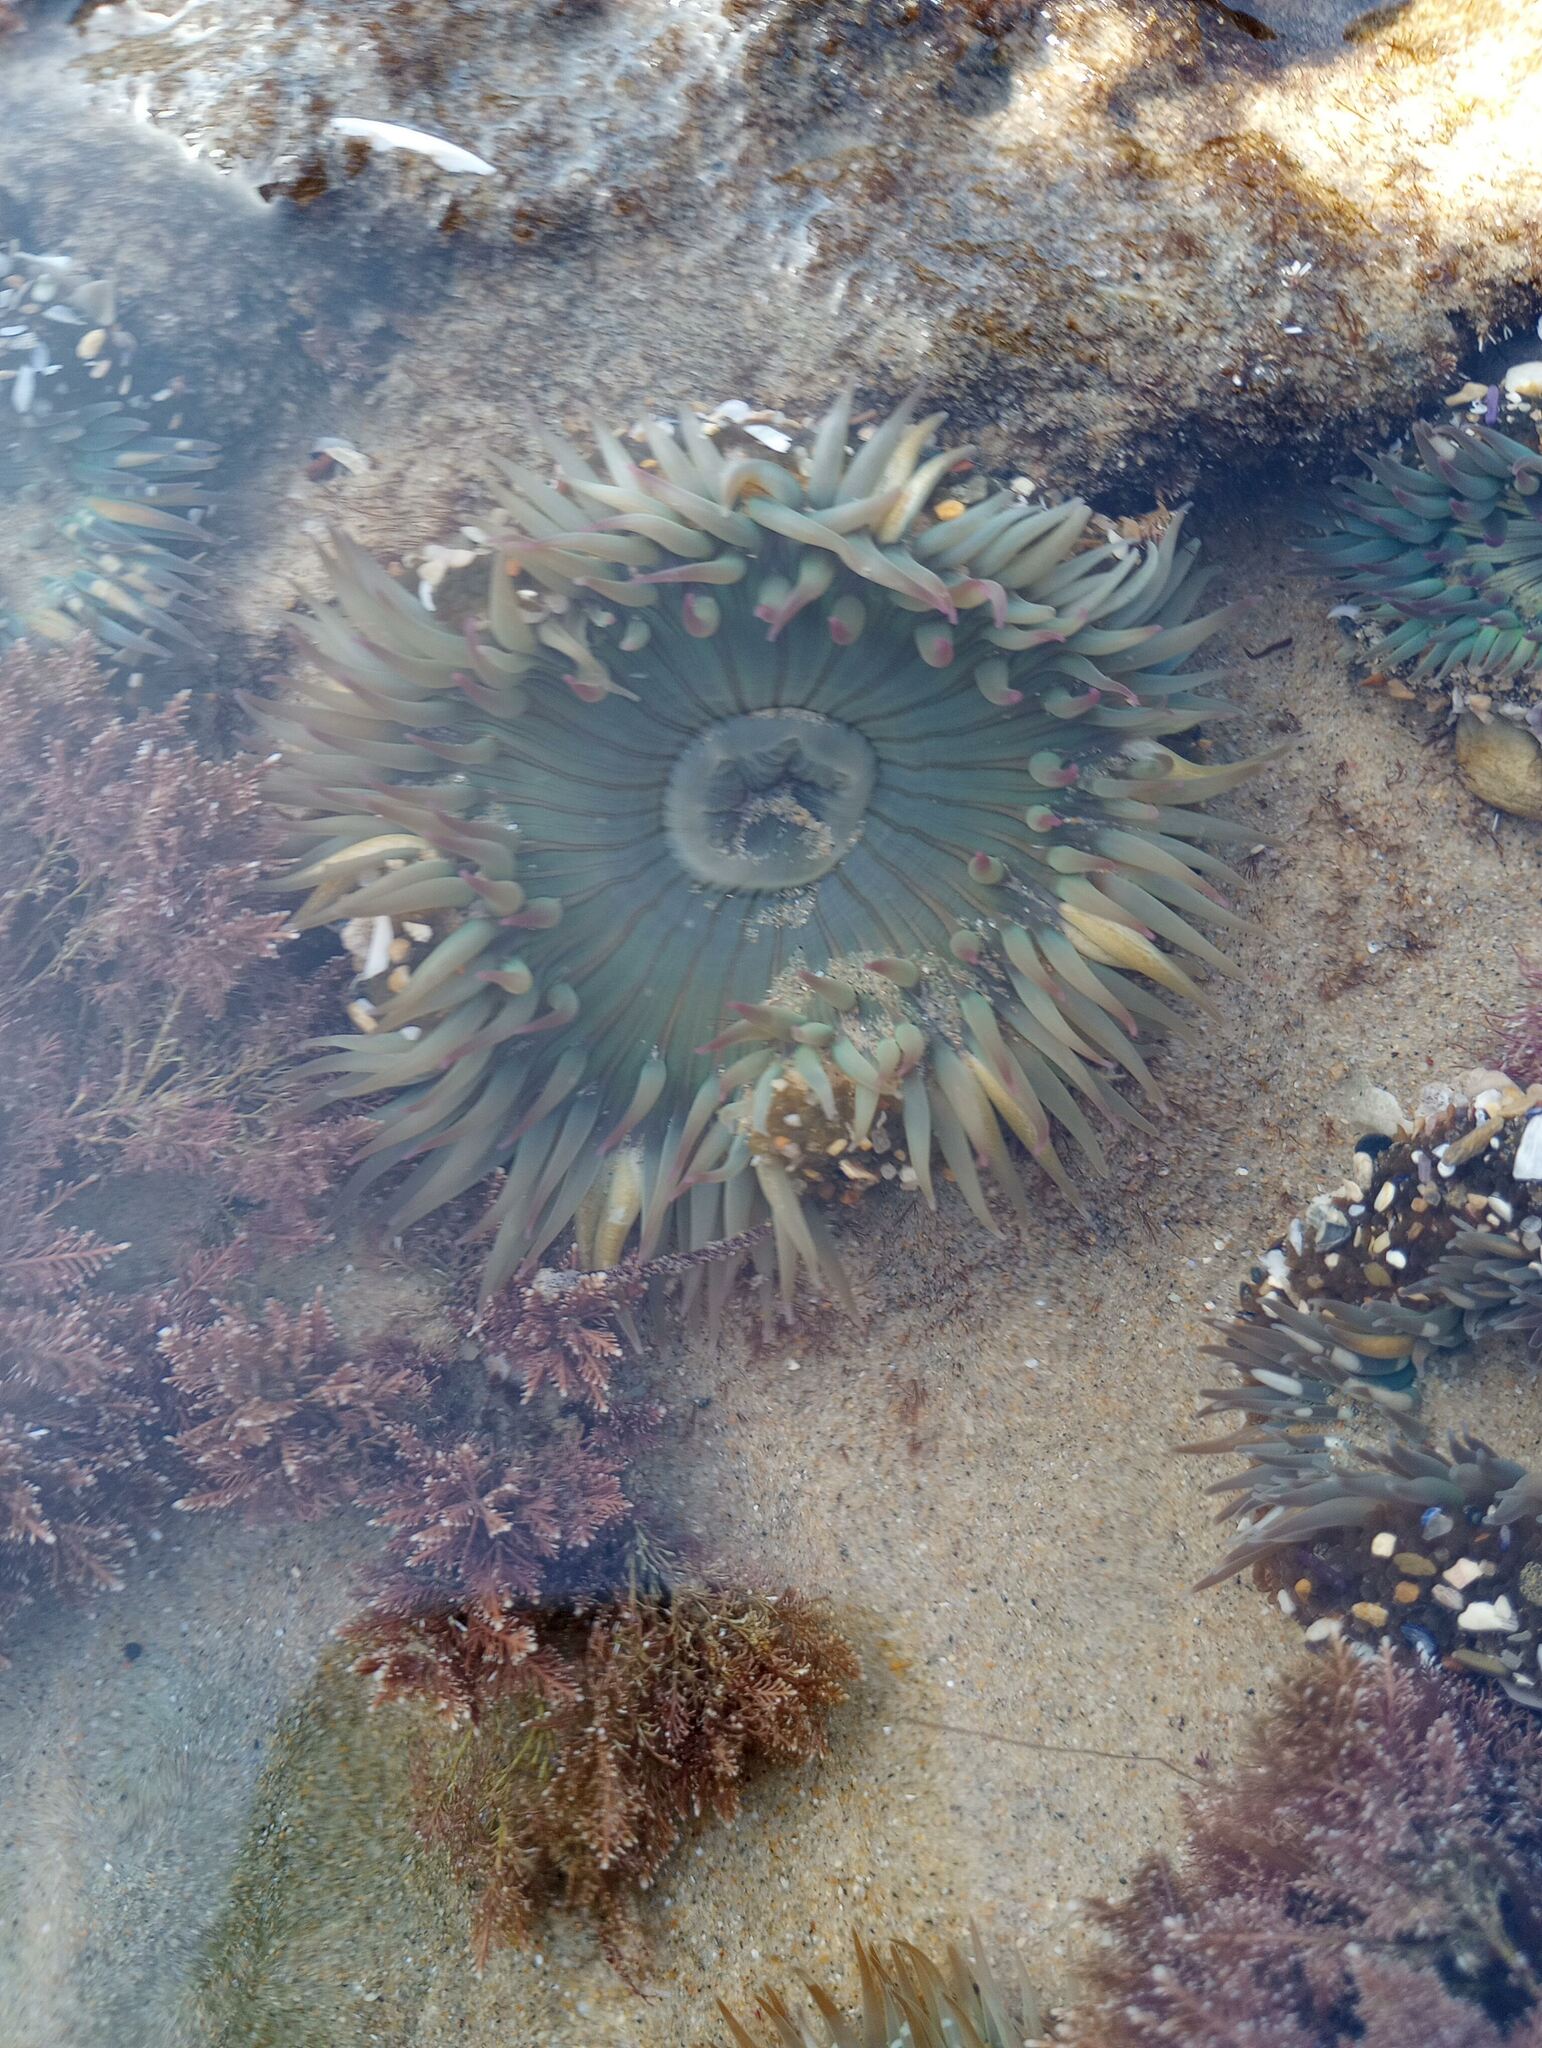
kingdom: Animalia
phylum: Cnidaria
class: Anthozoa
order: Actiniaria
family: Actiniidae
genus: Anthopleura
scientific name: Anthopleura sola
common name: Sun anemone
